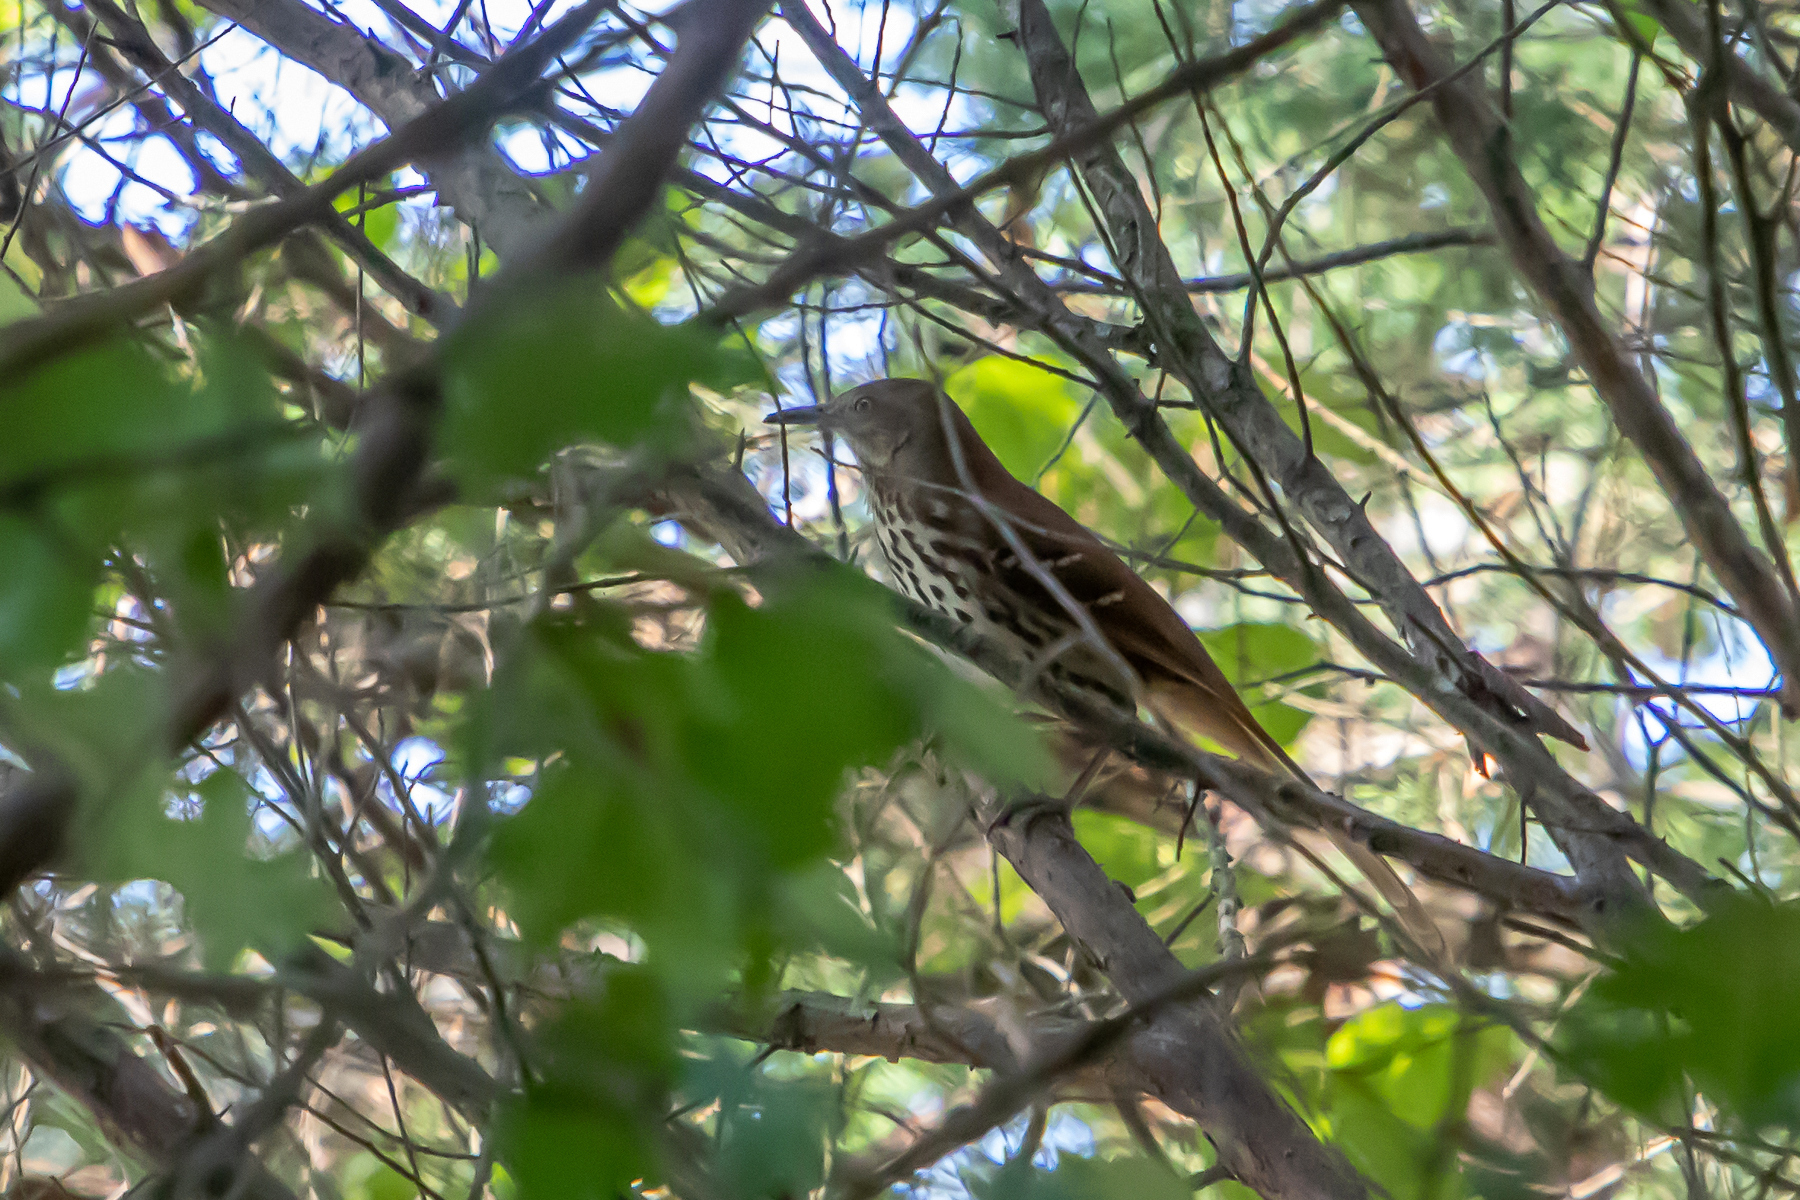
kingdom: Animalia
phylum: Chordata
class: Aves
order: Passeriformes
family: Mimidae
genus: Toxostoma
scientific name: Toxostoma rufum
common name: Brown thrasher
